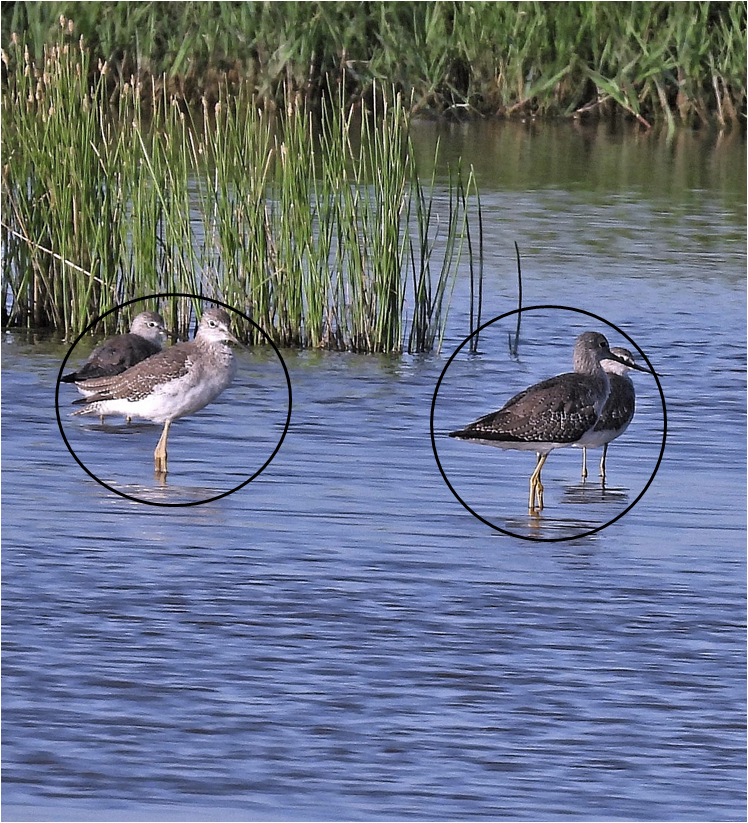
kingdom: Animalia
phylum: Chordata
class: Aves
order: Charadriiformes
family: Scolopacidae
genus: Tringa
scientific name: Tringa melanoleuca
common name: Greater yellowlegs
